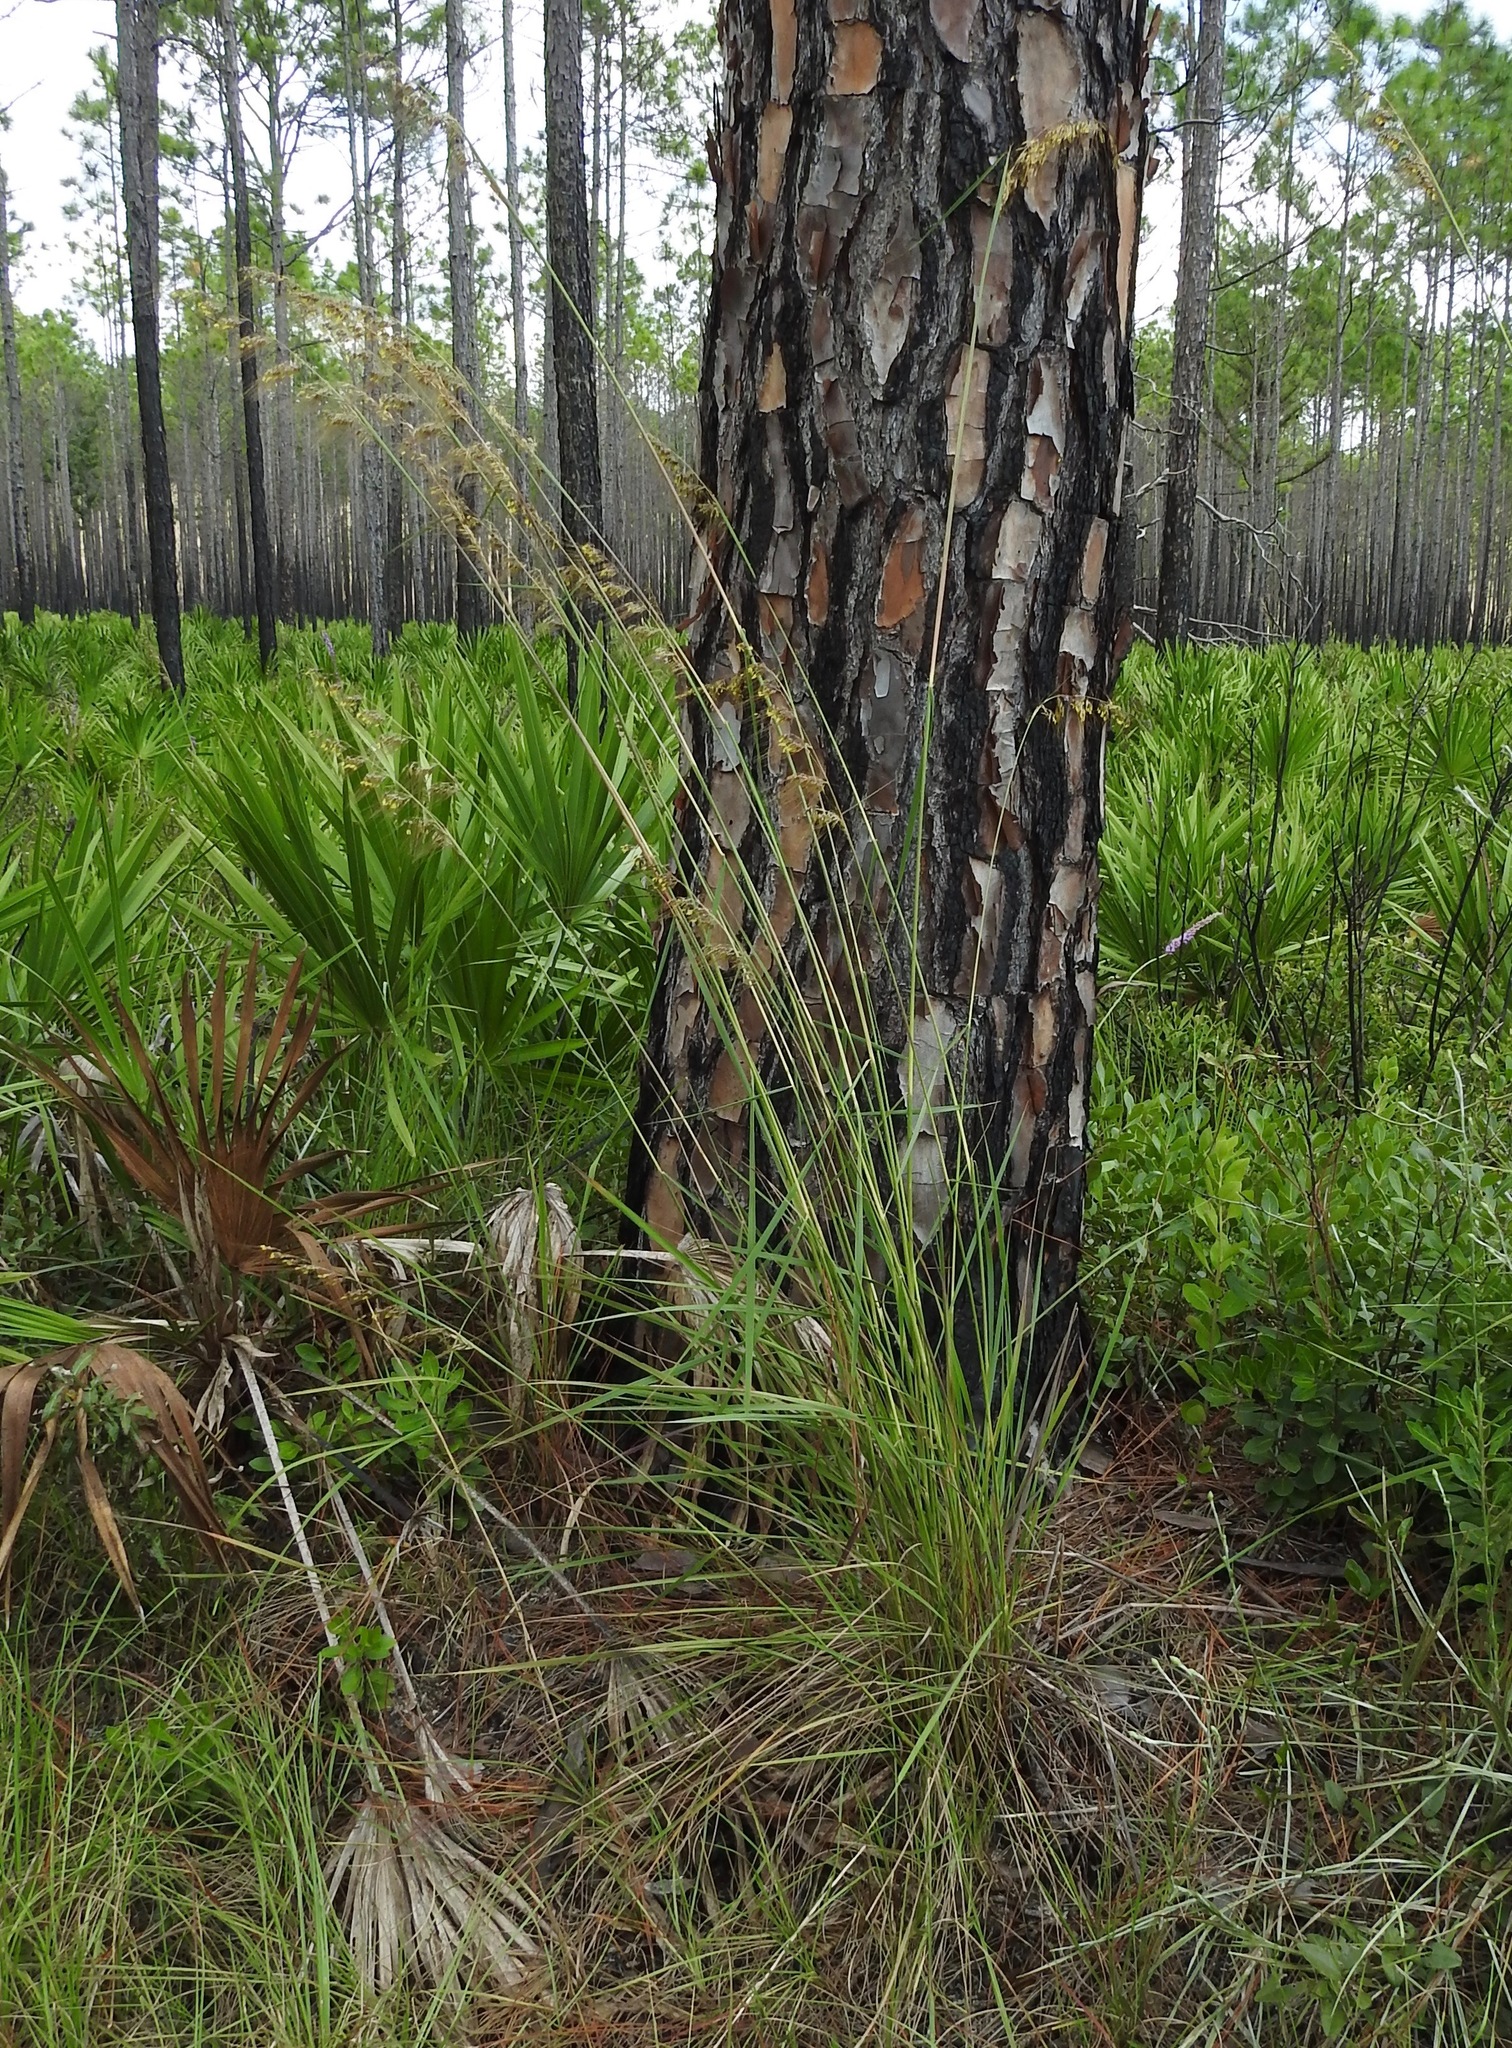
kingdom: Plantae
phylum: Tracheophyta
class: Liliopsida
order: Poales
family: Poaceae
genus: Sorghastrum
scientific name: Sorghastrum secundum
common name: Lopsided indian grass
